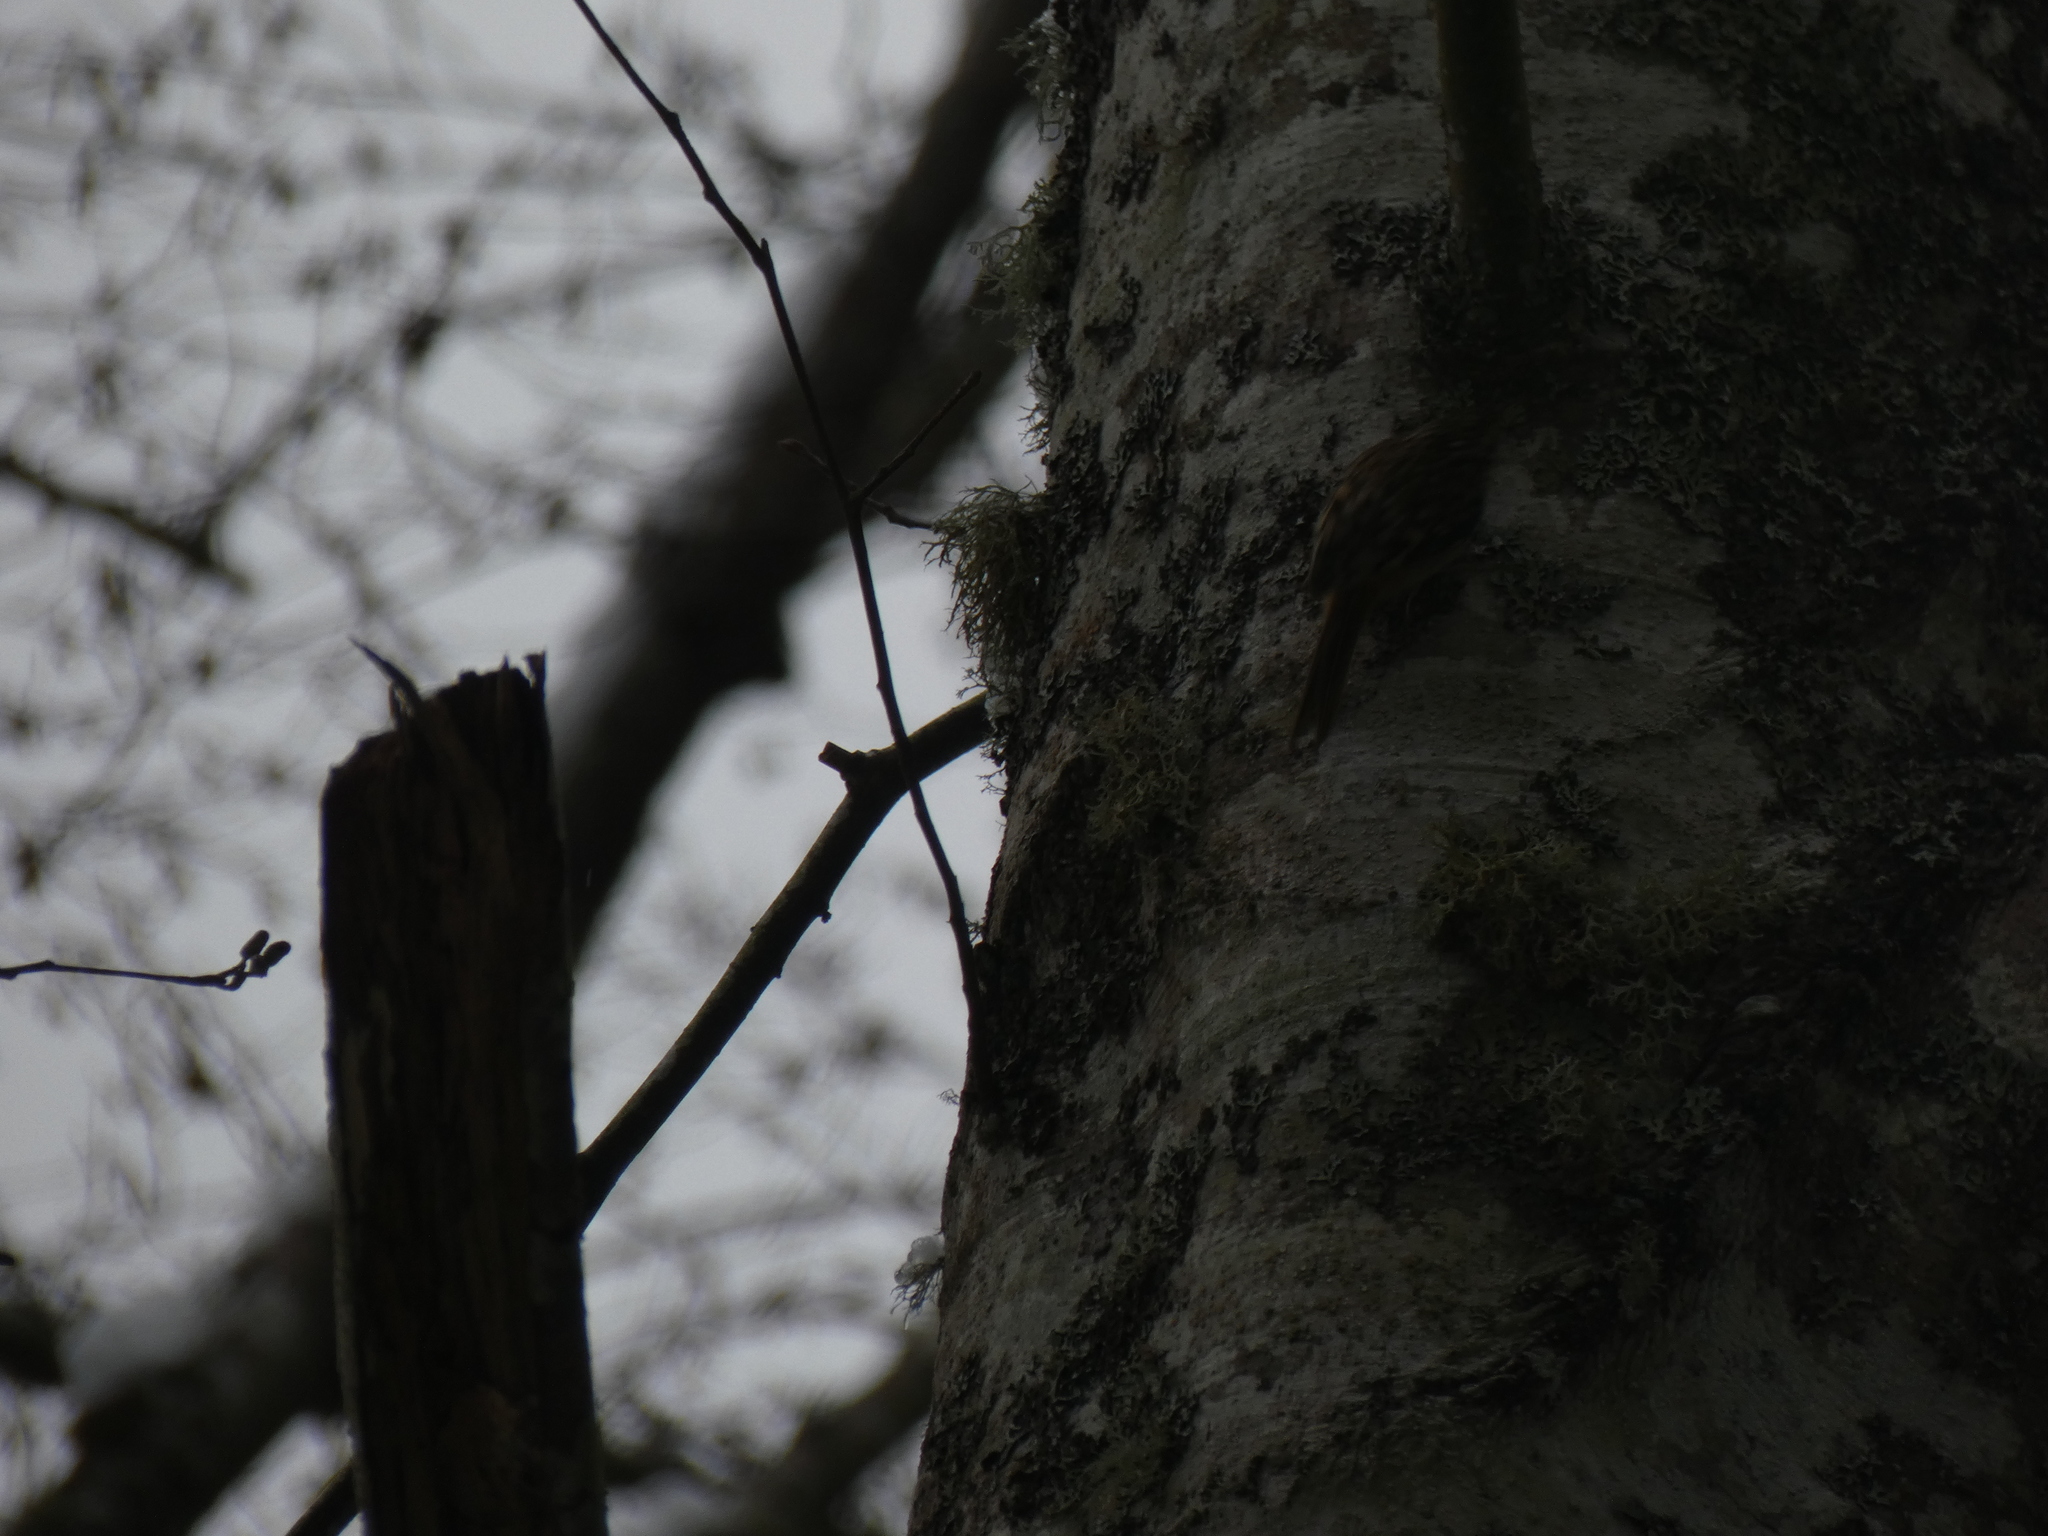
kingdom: Animalia
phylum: Chordata
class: Aves
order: Passeriformes
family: Certhiidae
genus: Certhia
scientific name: Certhia americana
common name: Brown creeper
